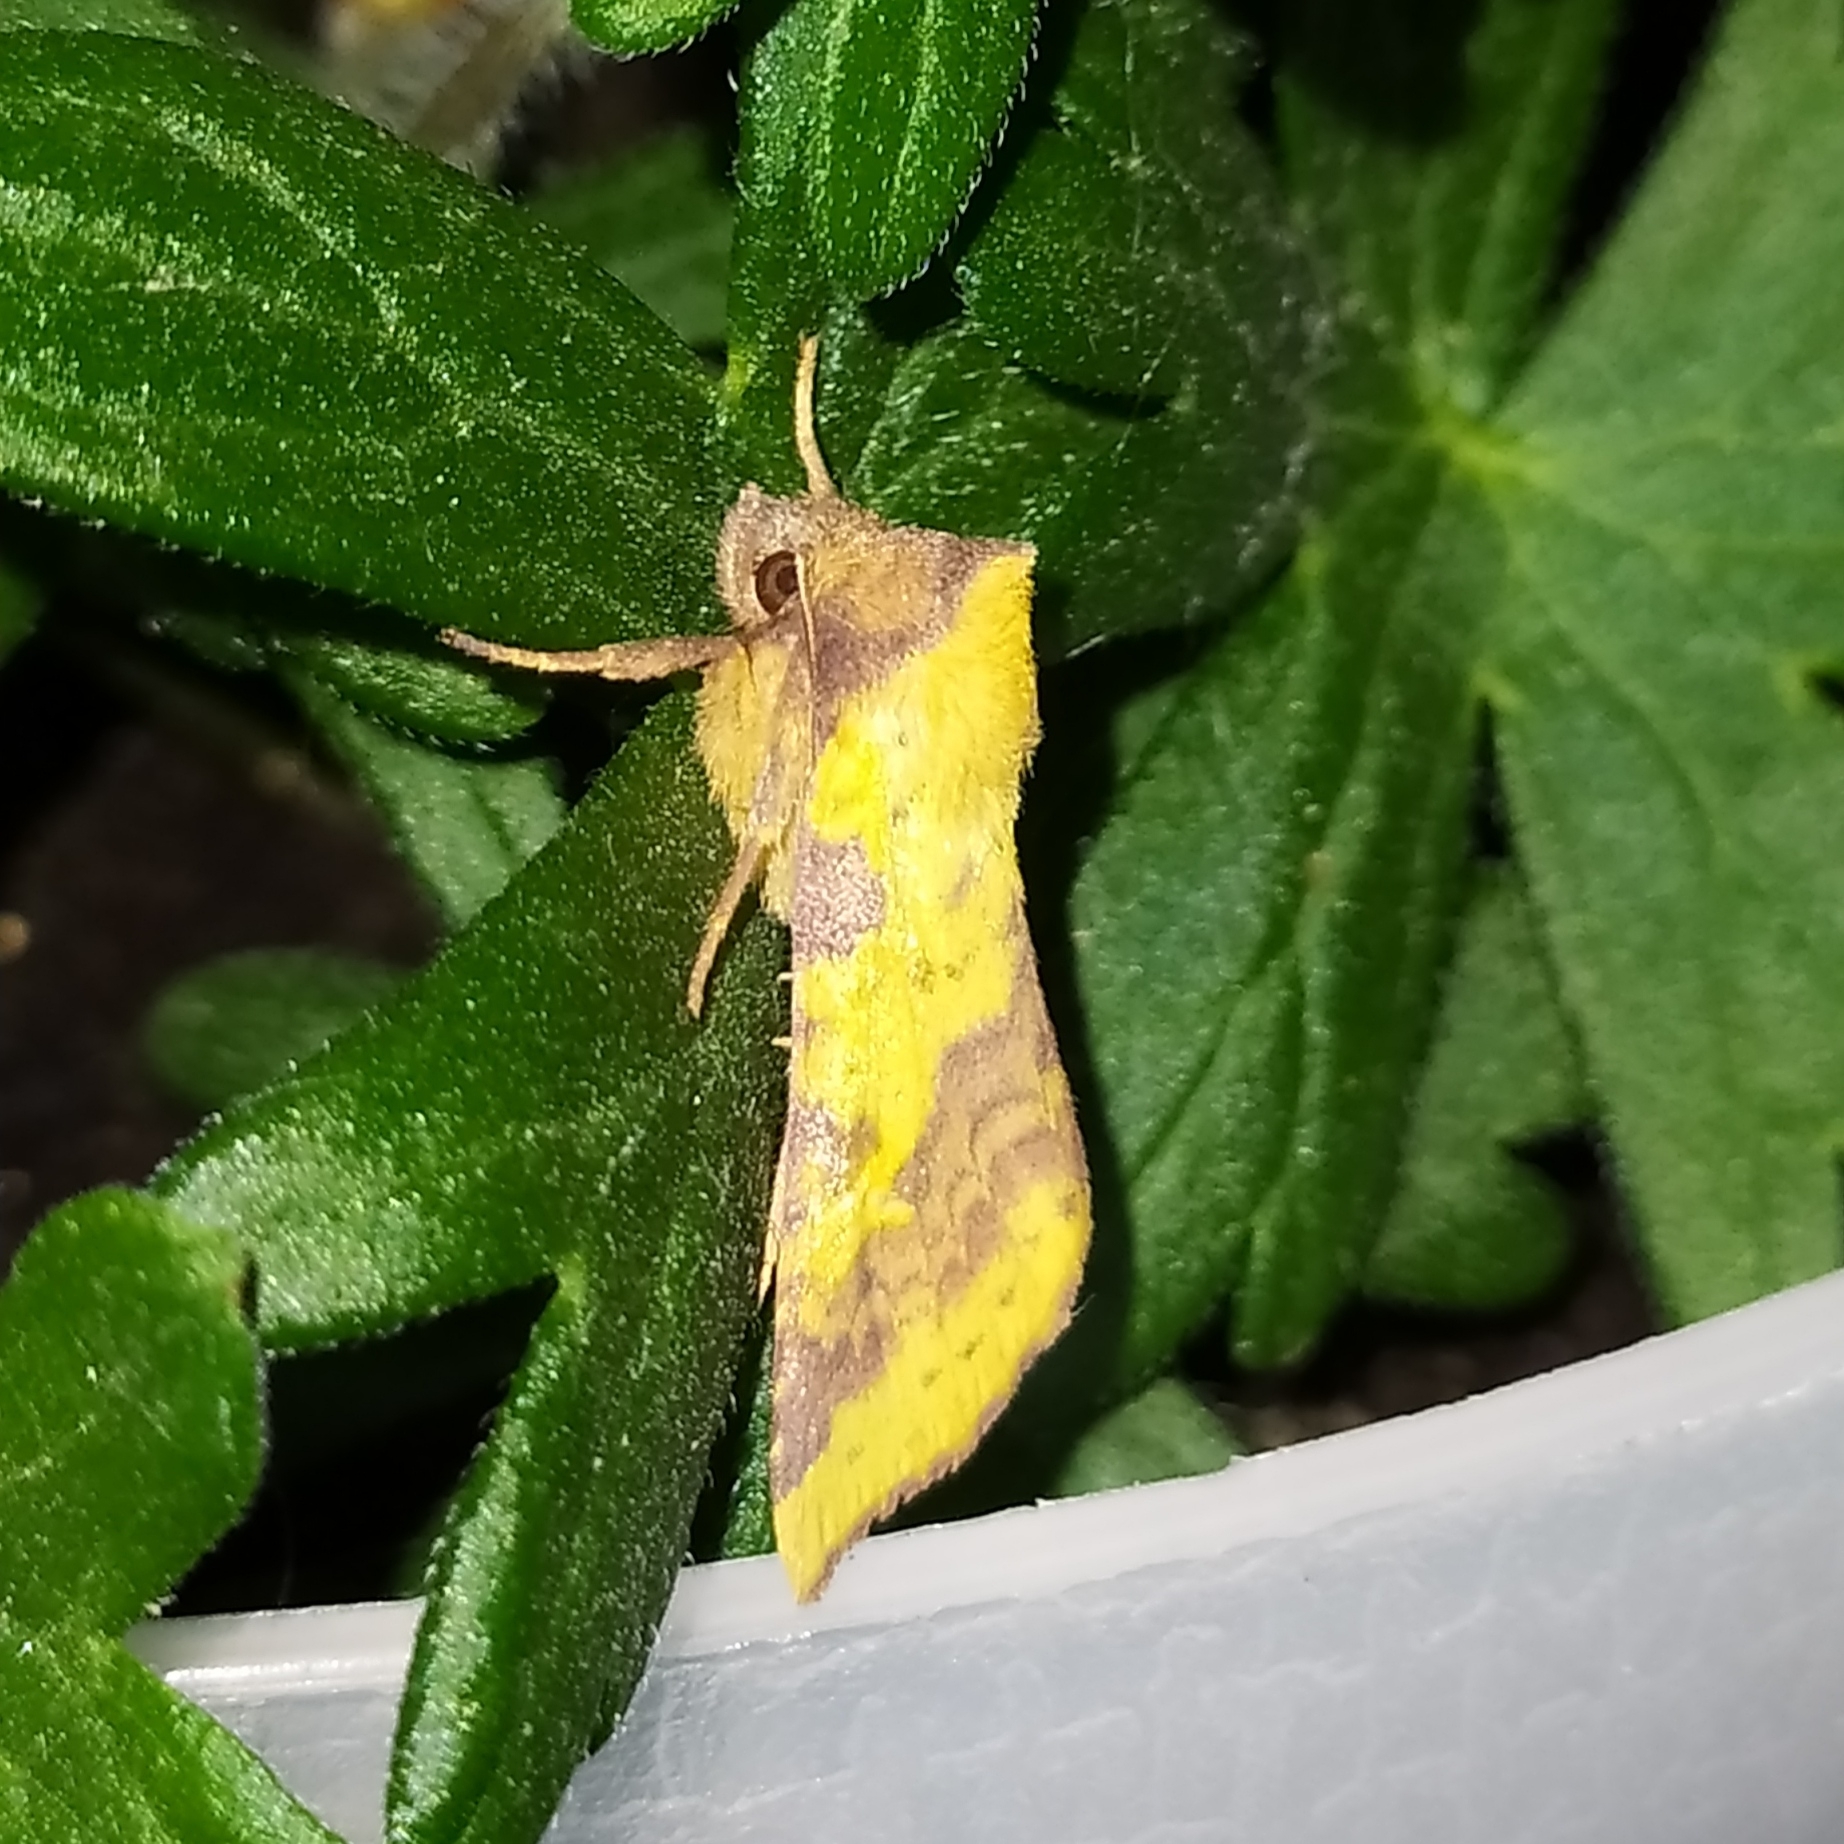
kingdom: Animalia
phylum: Arthropoda
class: Insecta
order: Lepidoptera
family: Noctuidae
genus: Xanthia
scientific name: Xanthia togata
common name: Pink-barred sallow
